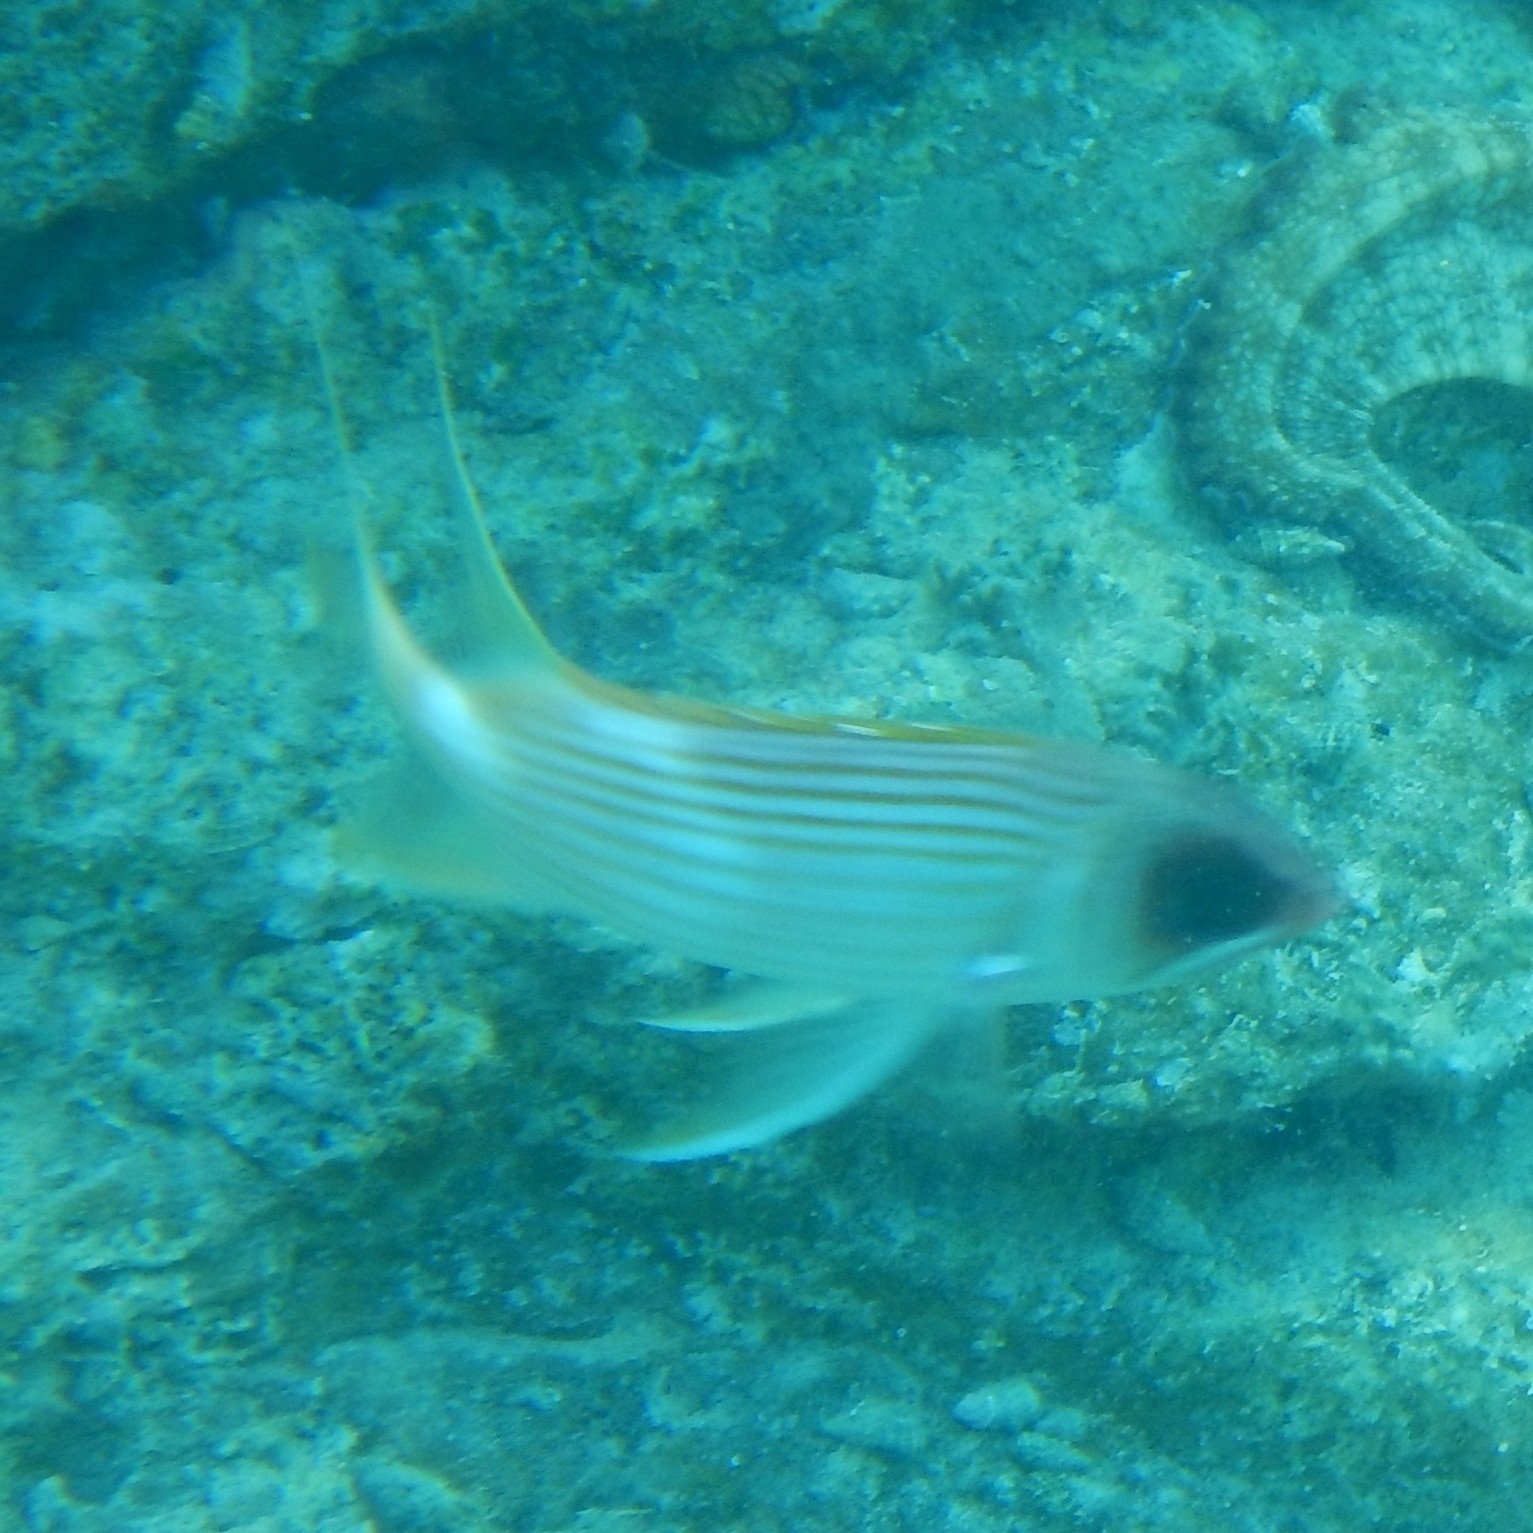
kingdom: Animalia
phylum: Chordata
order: Beryciformes
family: Holocentridae
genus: Holocentrus
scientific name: Holocentrus rufus
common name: Longspine squirrelfish
